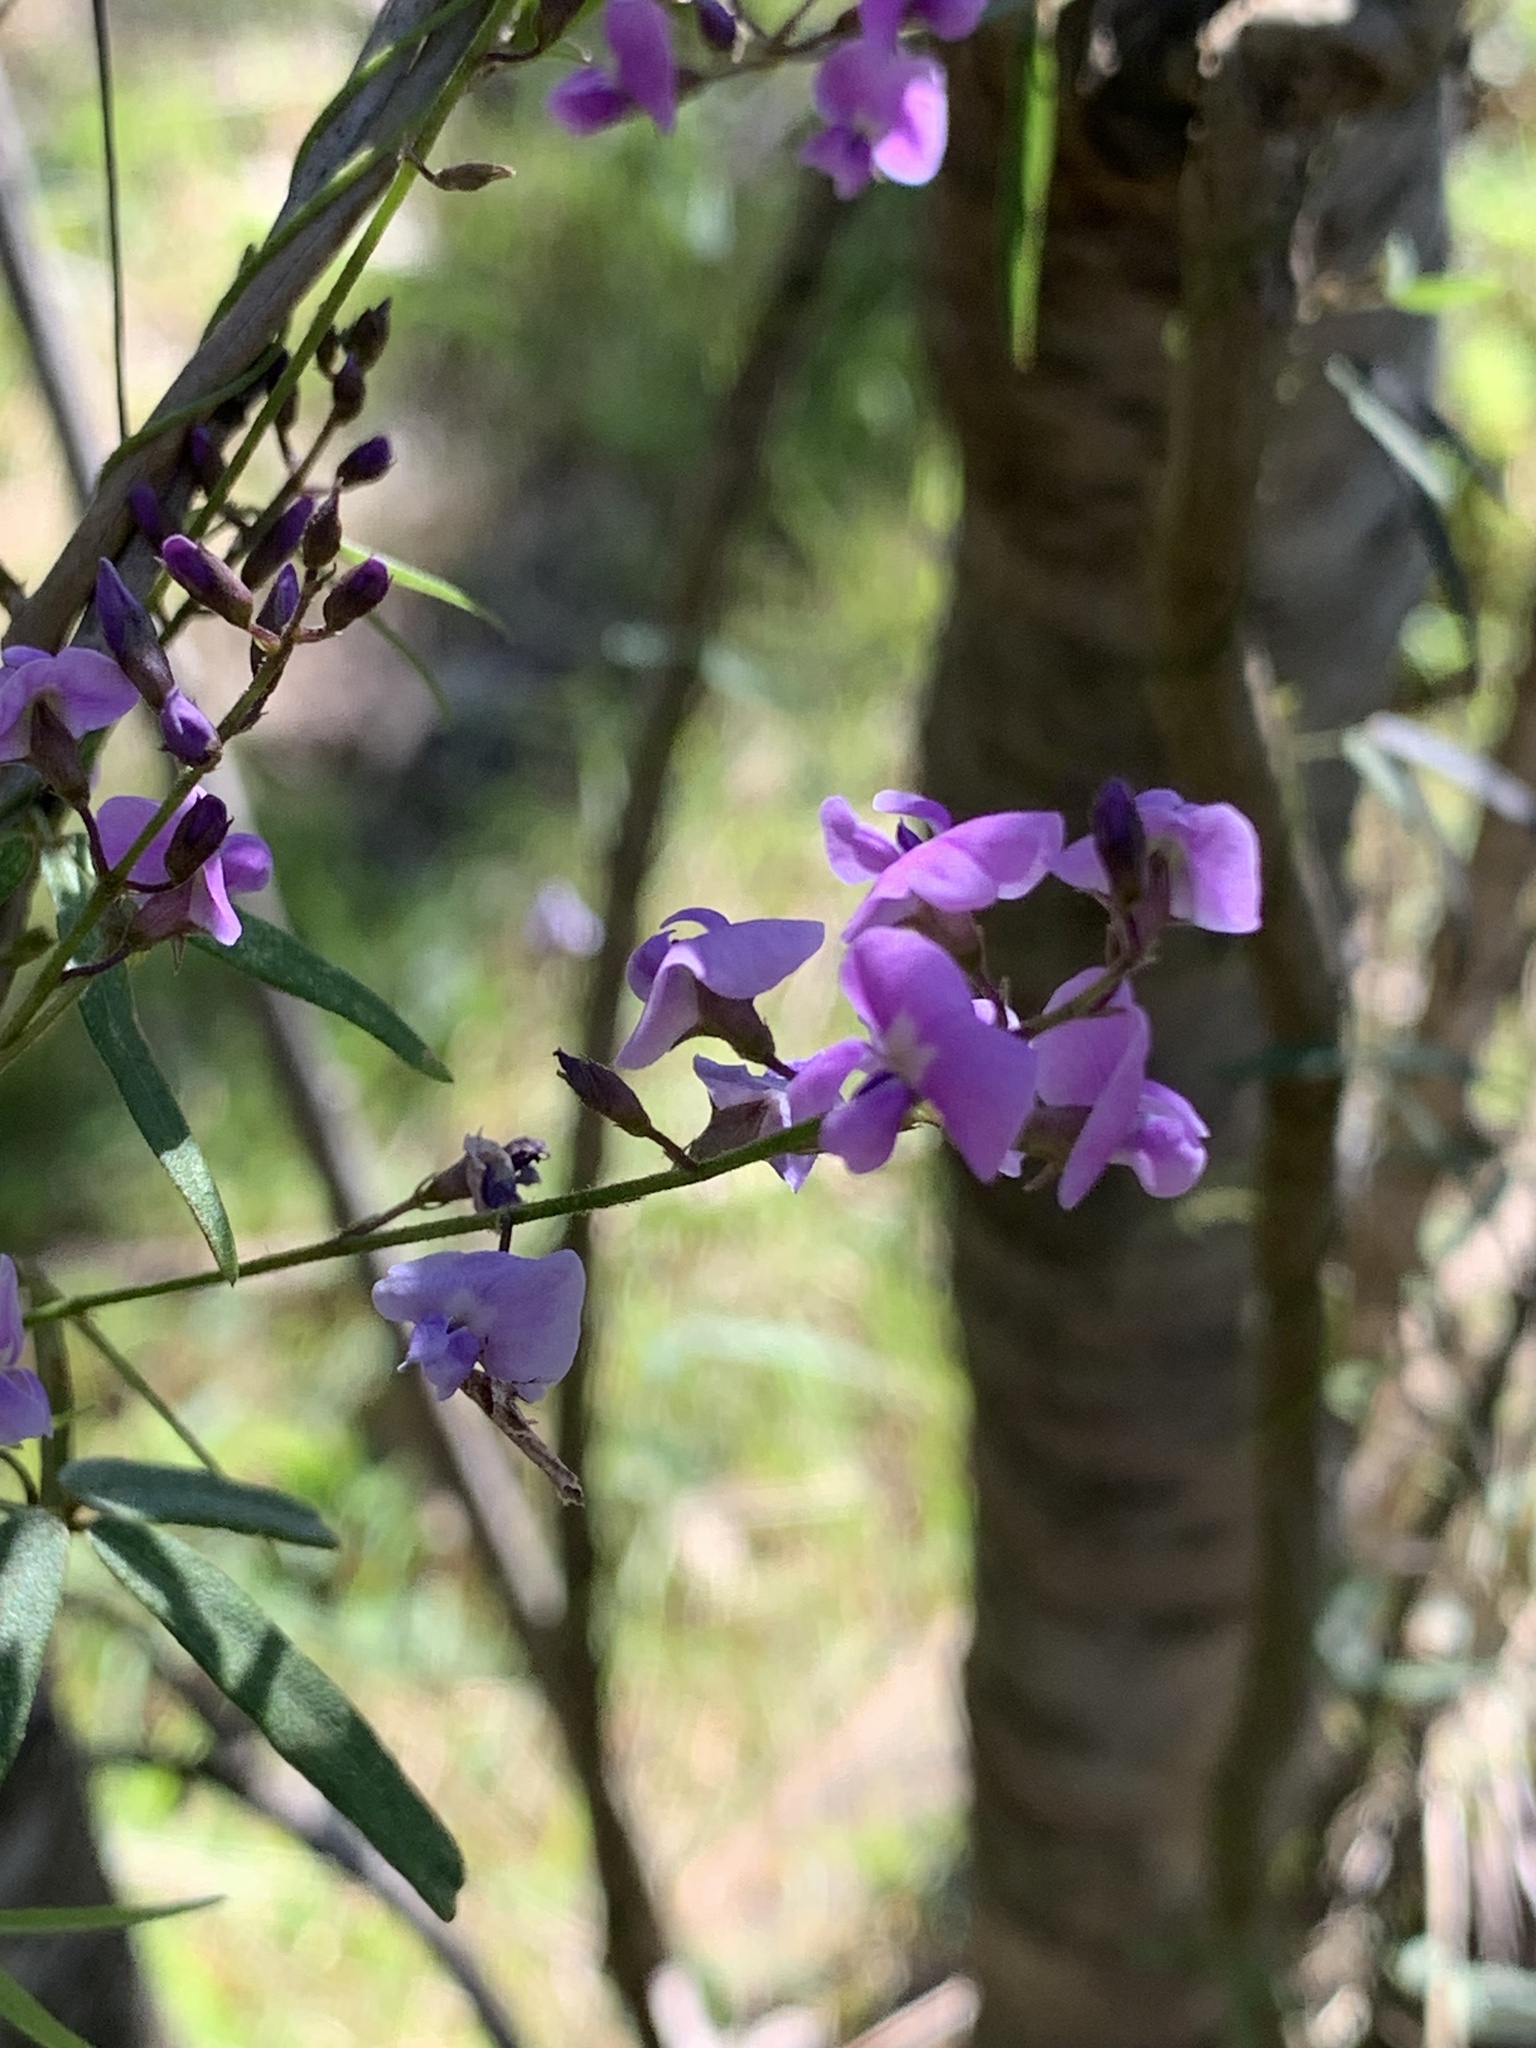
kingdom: Plantae
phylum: Tracheophyta
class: Magnoliopsida
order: Fabales
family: Fabaceae
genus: Glycine
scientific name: Glycine clandestina
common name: Twining glycine
